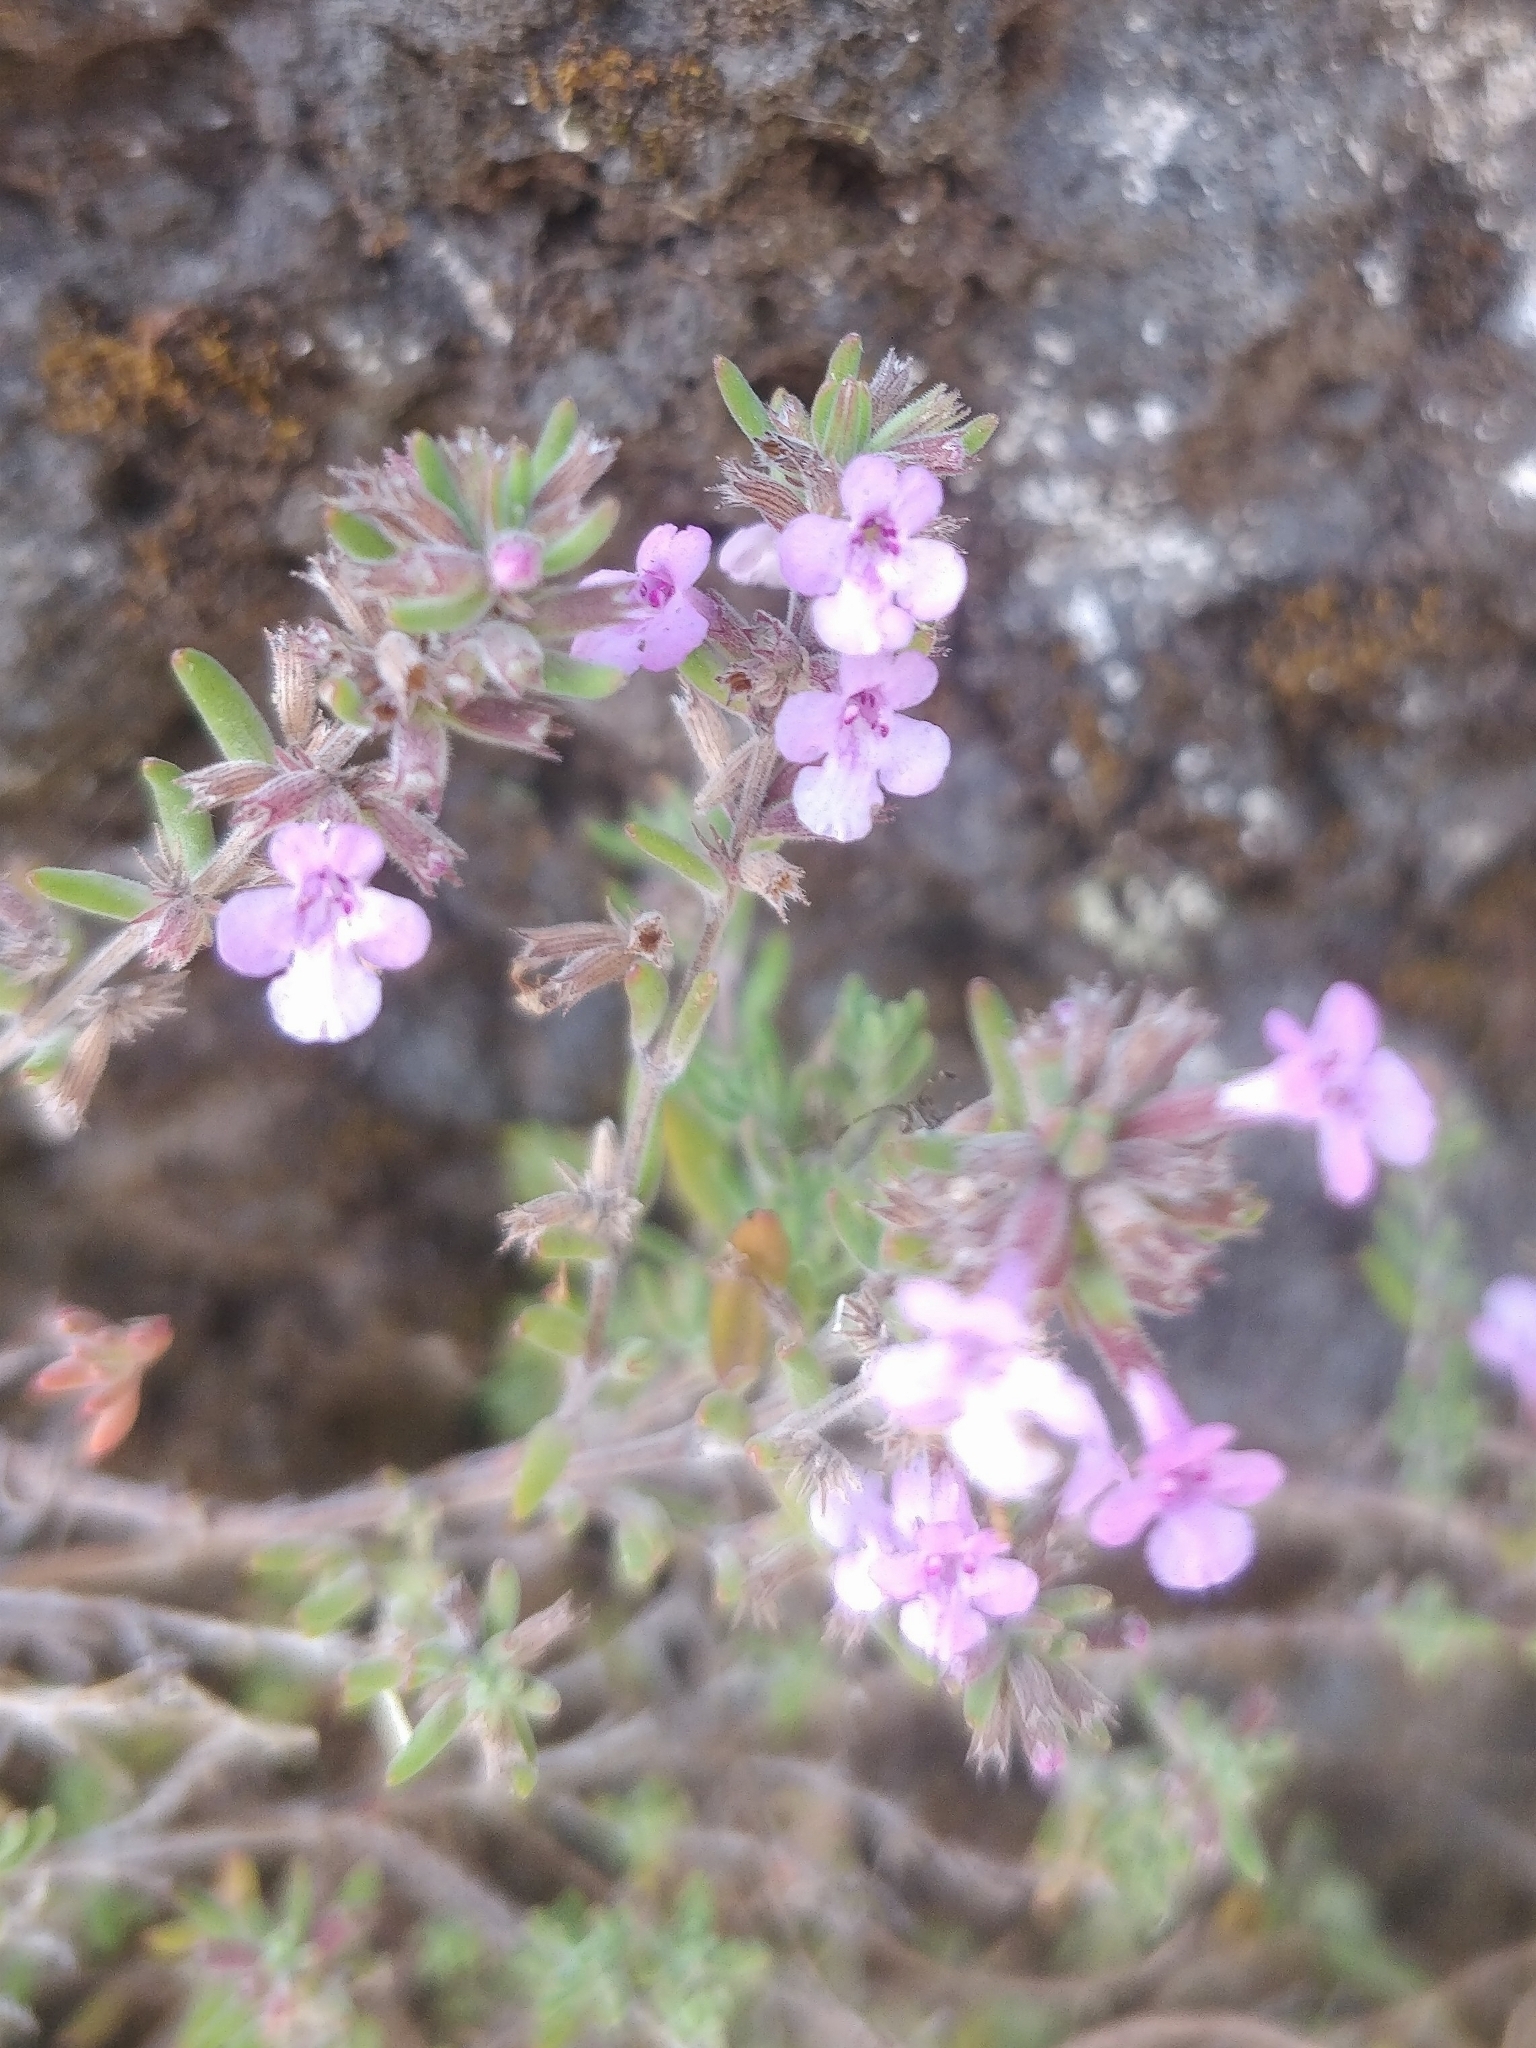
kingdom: Plantae
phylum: Tracheophyta
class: Magnoliopsida
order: Lamiales
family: Lamiaceae
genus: Micromeria
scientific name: Micromeria maderensis
